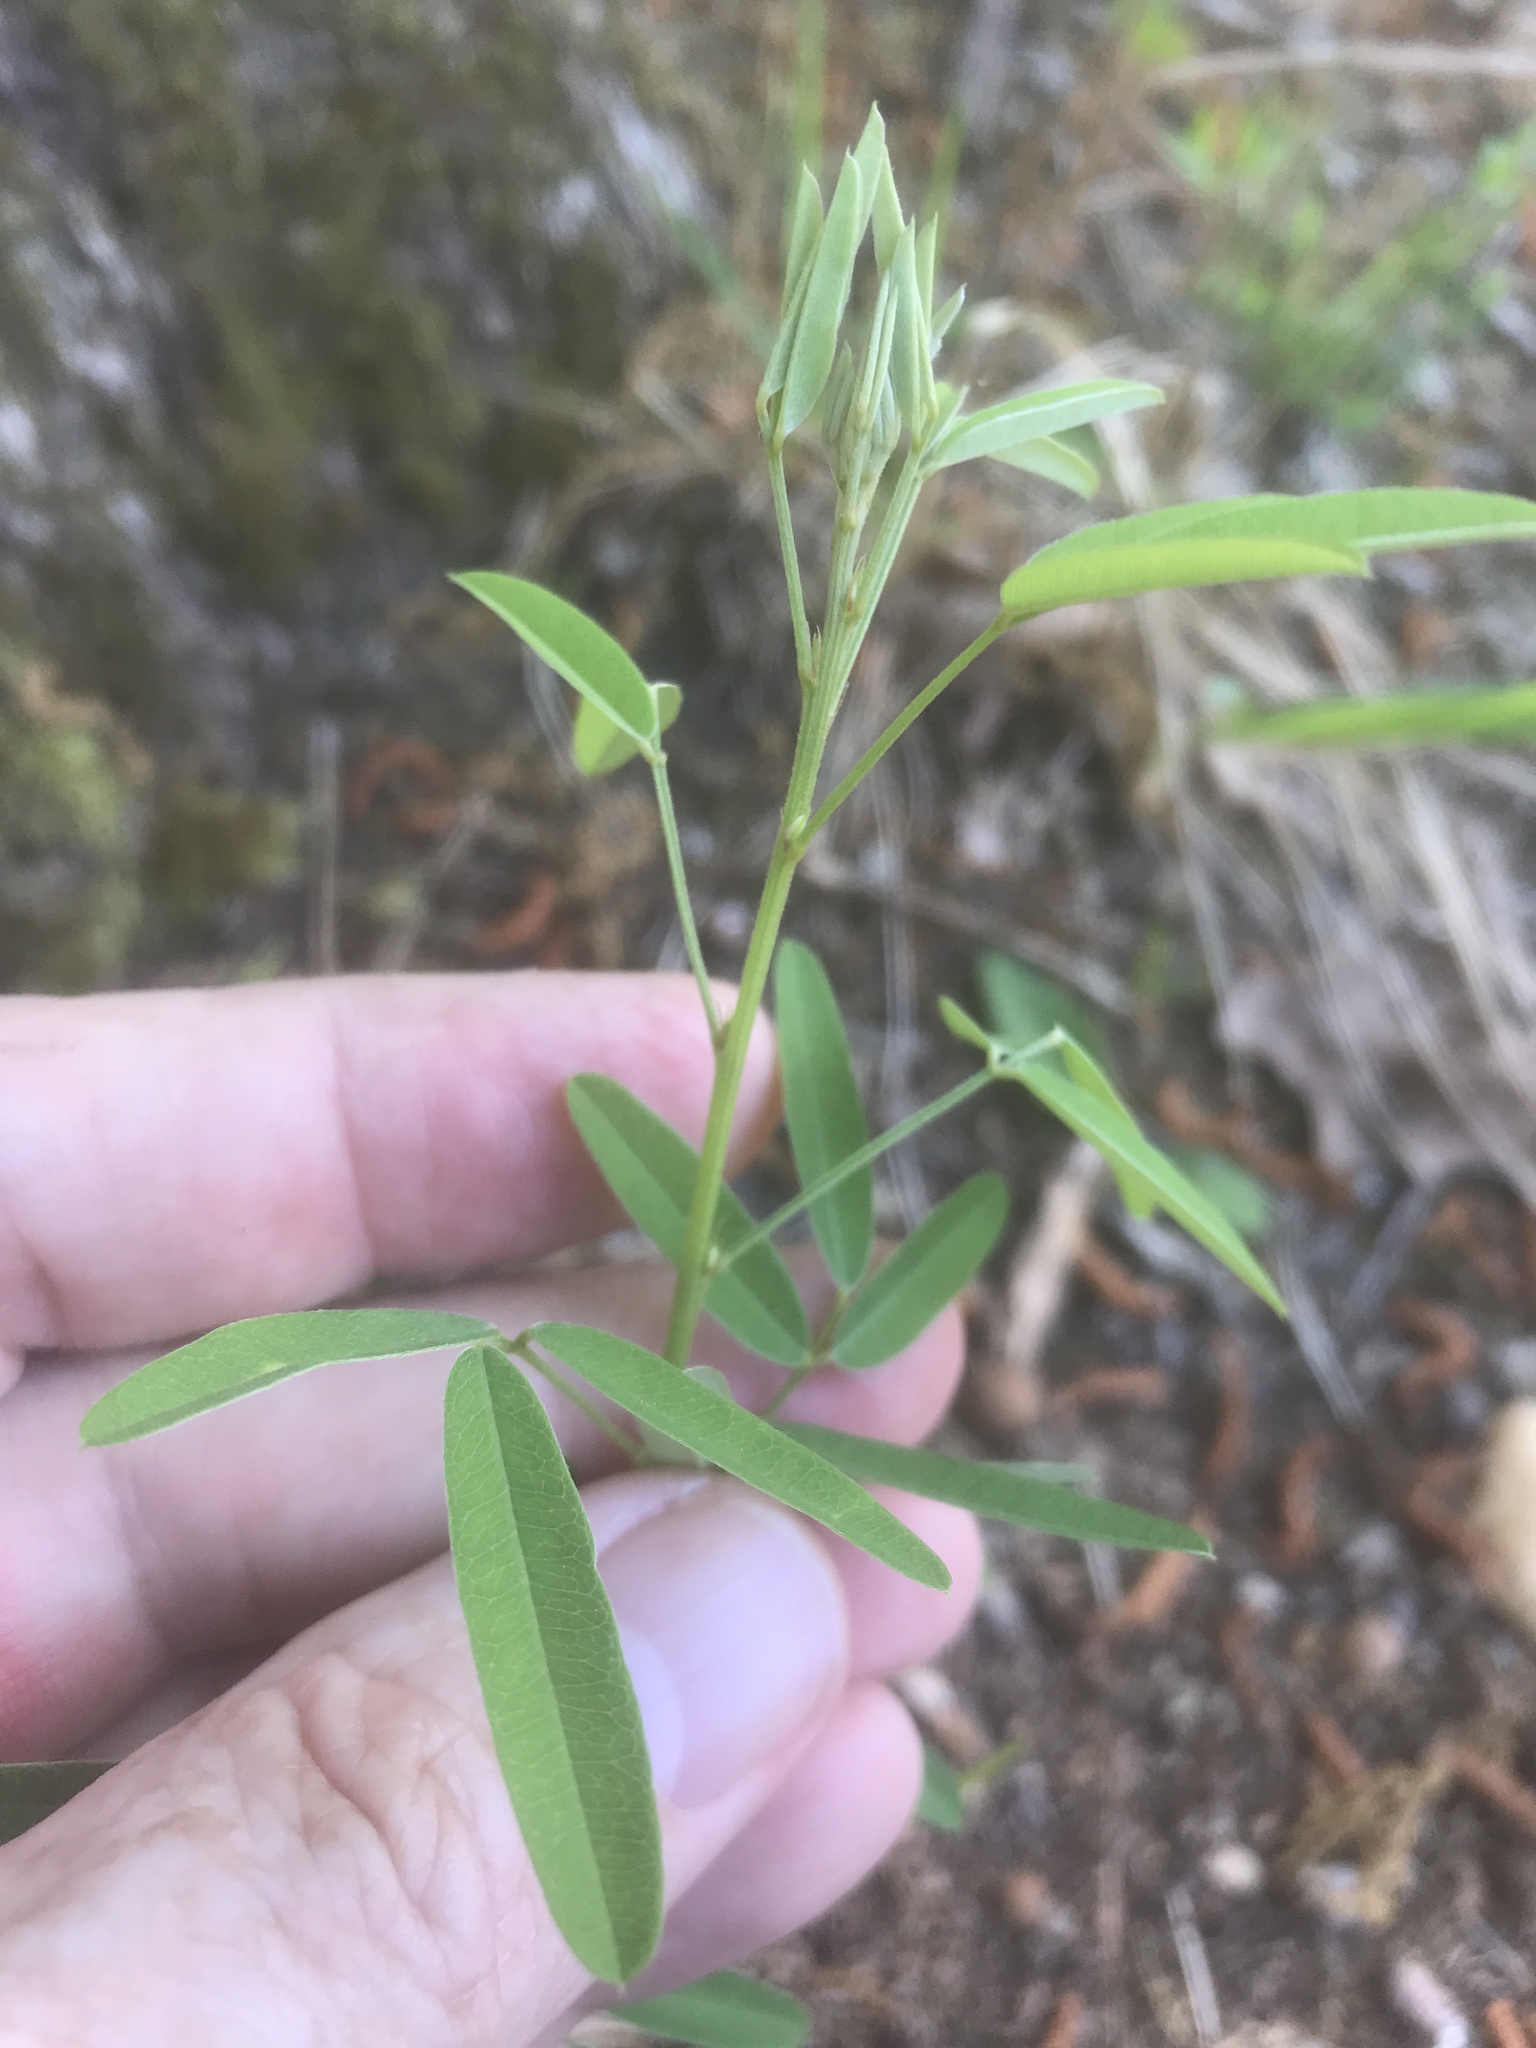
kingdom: Plantae
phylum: Tracheophyta
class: Magnoliopsida
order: Fabales
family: Fabaceae
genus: Lespedeza
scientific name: Lespedeza virginica
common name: Slender bush-clover
